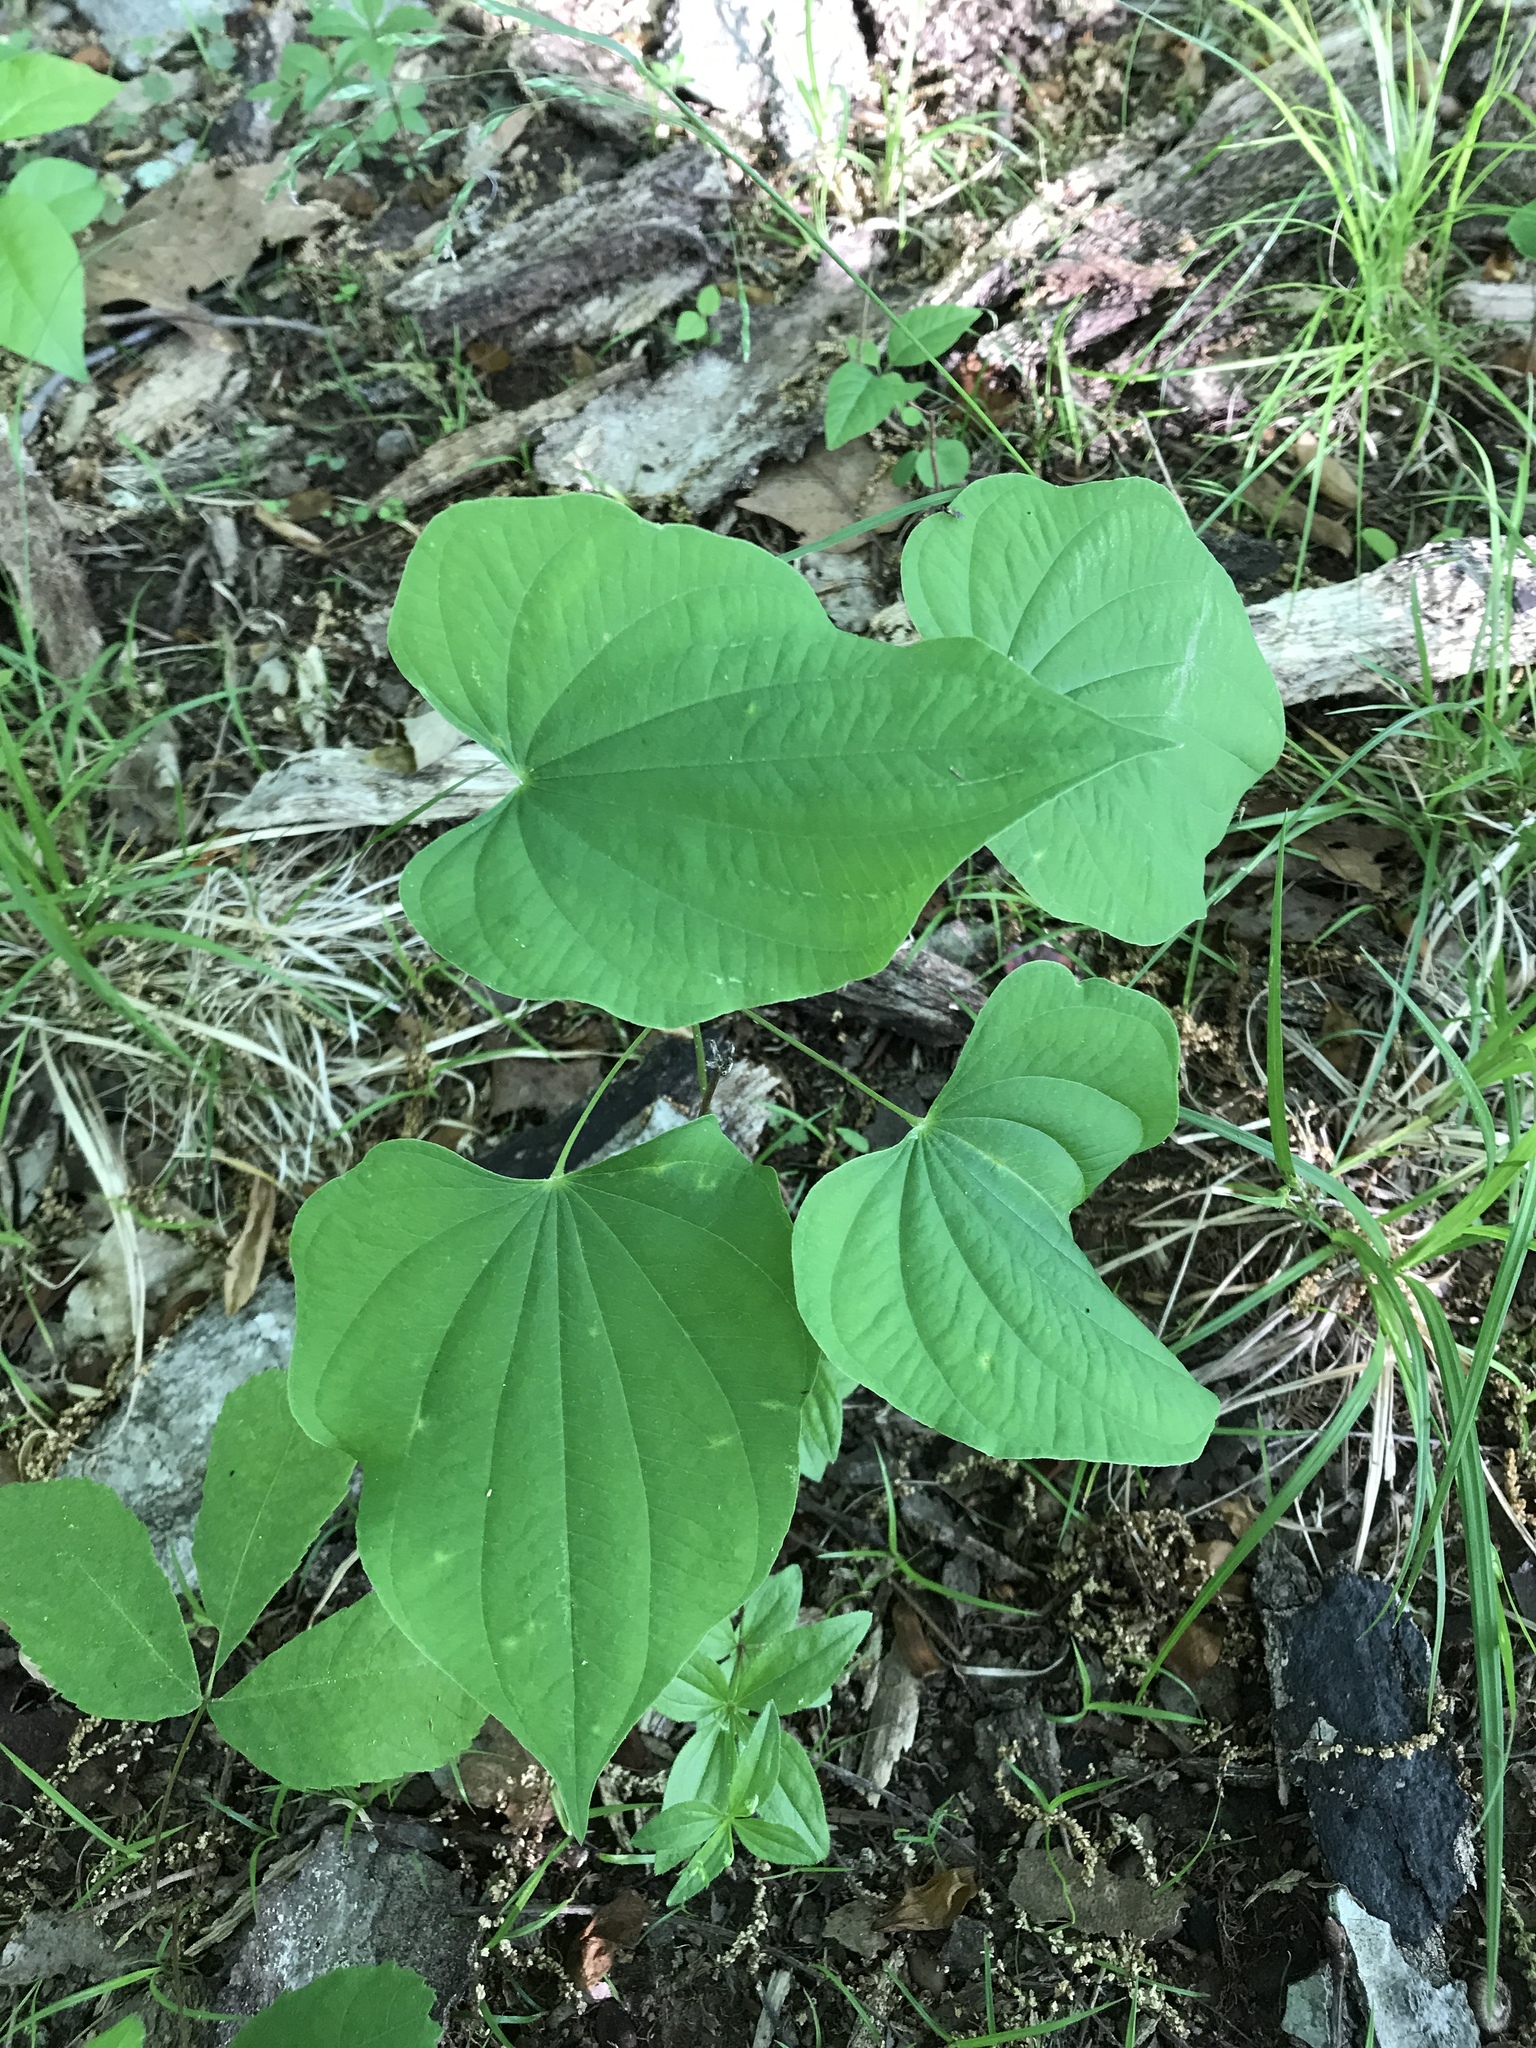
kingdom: Plantae
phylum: Tracheophyta
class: Liliopsida
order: Dioscoreales
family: Dioscoreaceae
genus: Dioscorea
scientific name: Dioscorea villosa
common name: Wild yam
